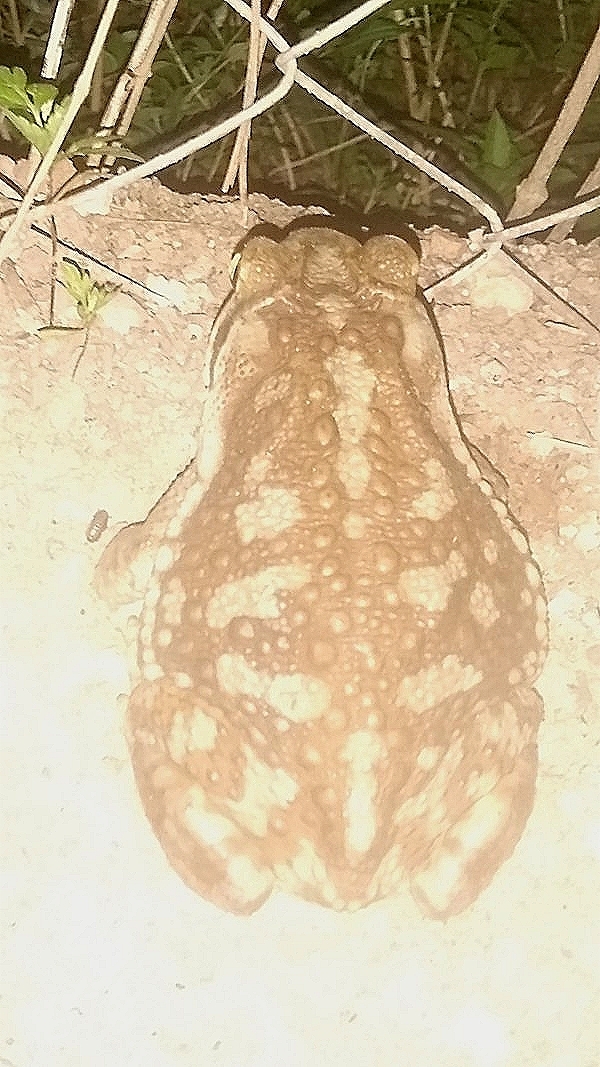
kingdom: Animalia
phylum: Chordata
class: Amphibia
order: Anura
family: Bufonidae
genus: Rhinella
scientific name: Rhinella arenarum
